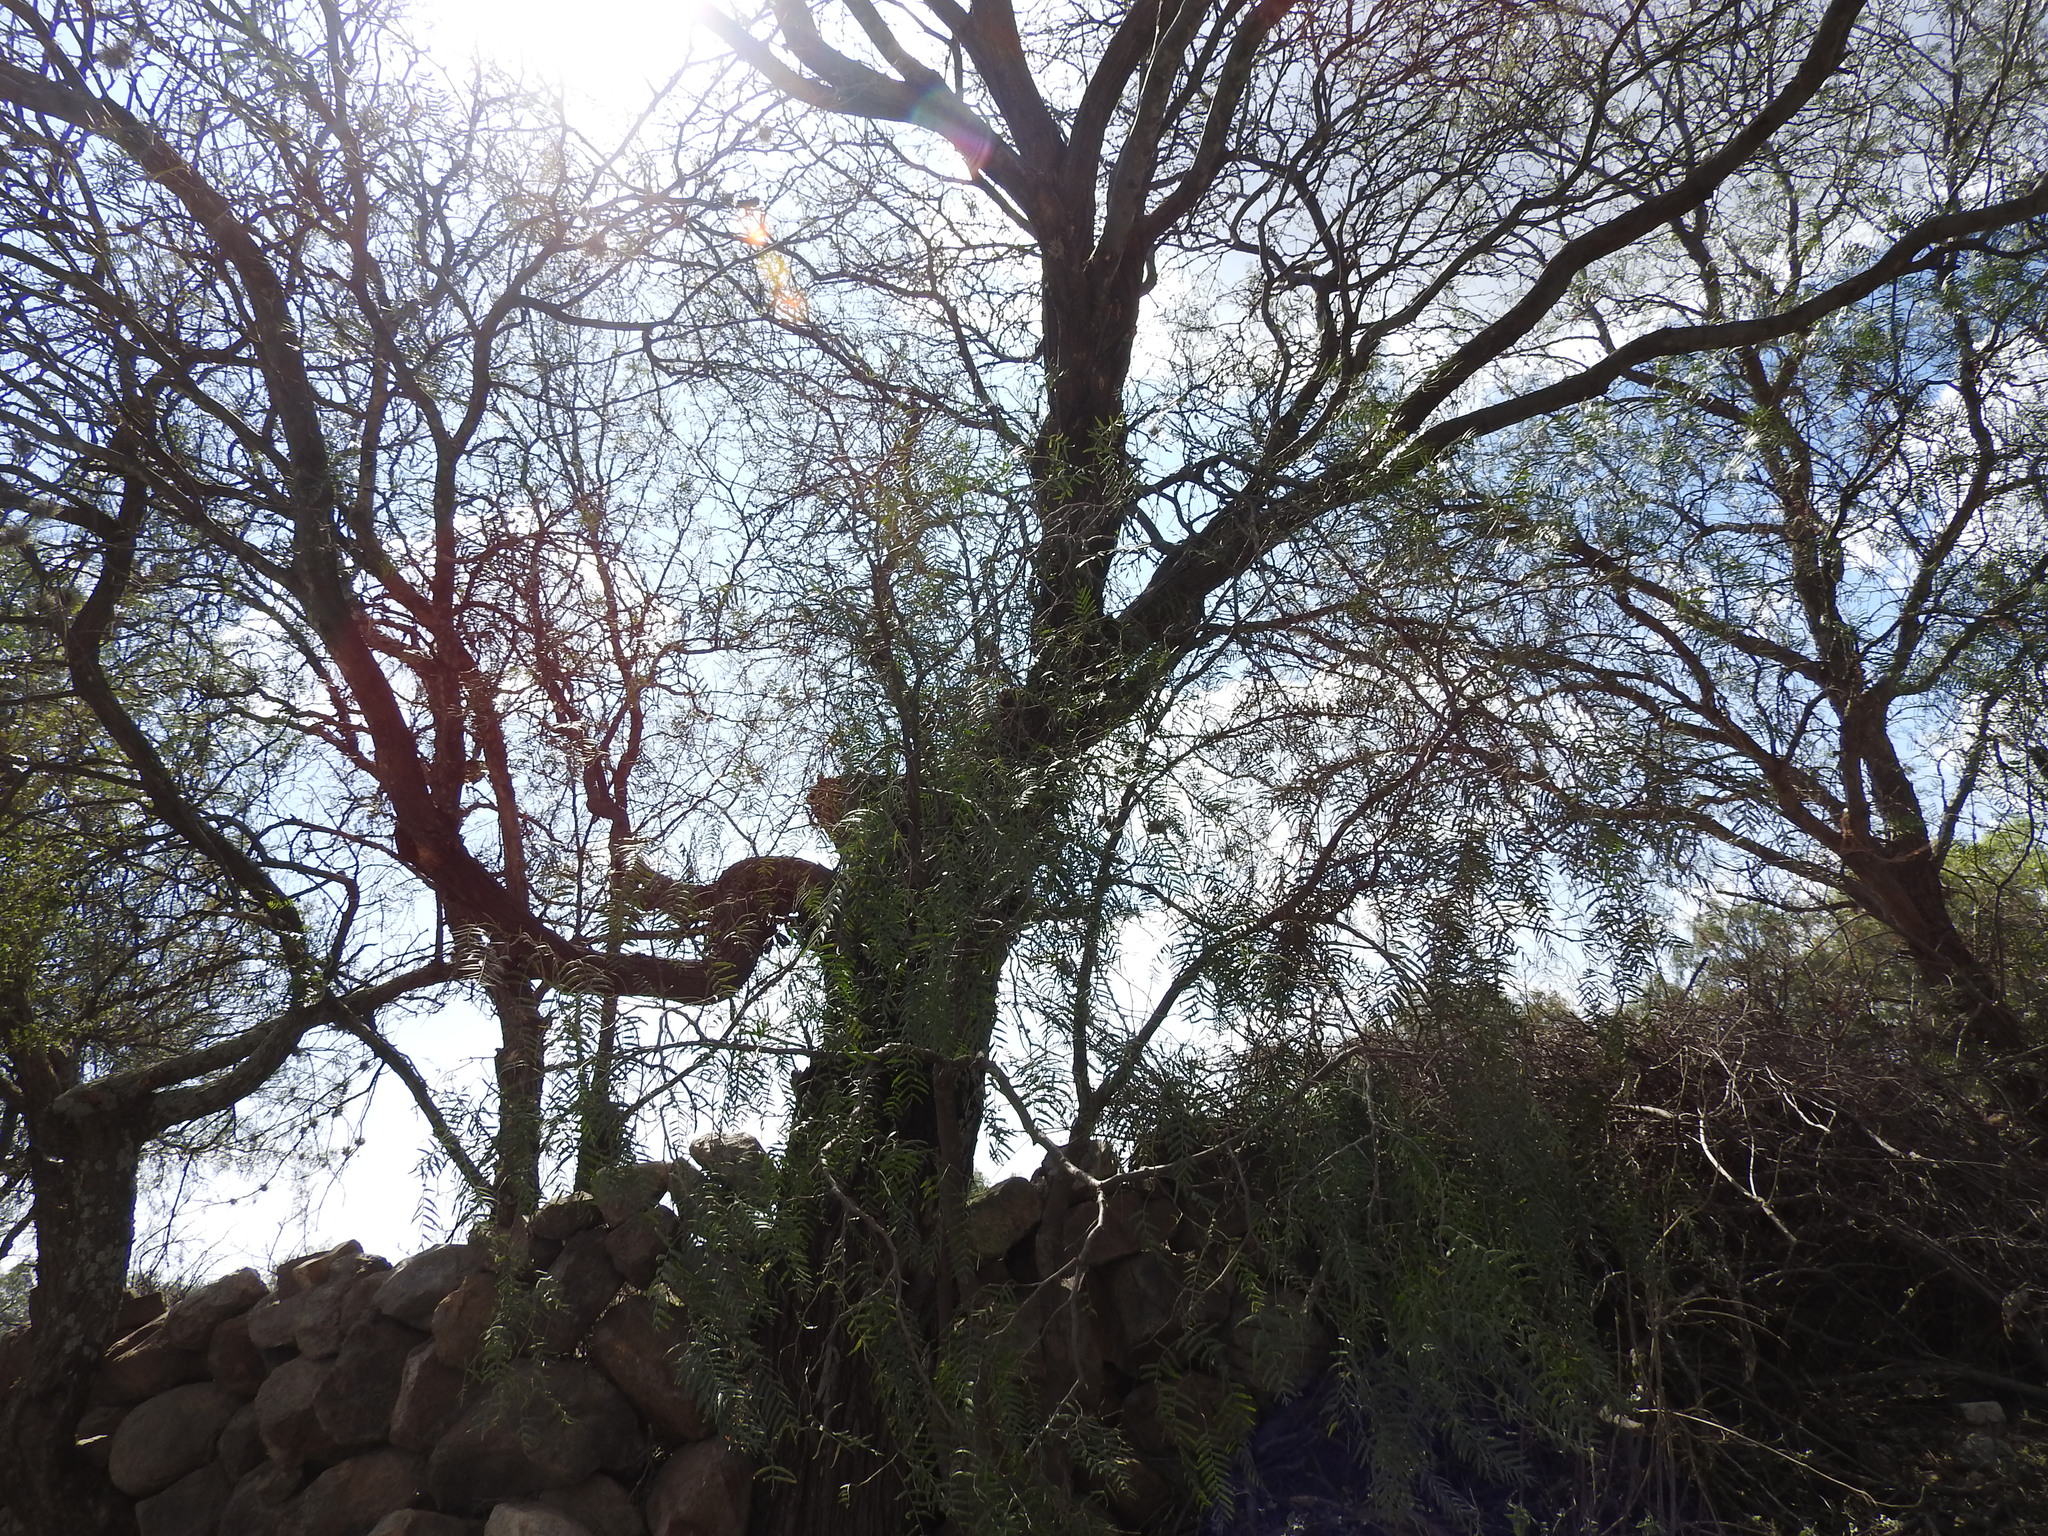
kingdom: Plantae
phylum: Tracheophyta
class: Magnoliopsida
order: Sapindales
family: Anacardiaceae
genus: Schinus
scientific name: Schinus molle
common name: Peruvian peppertree
